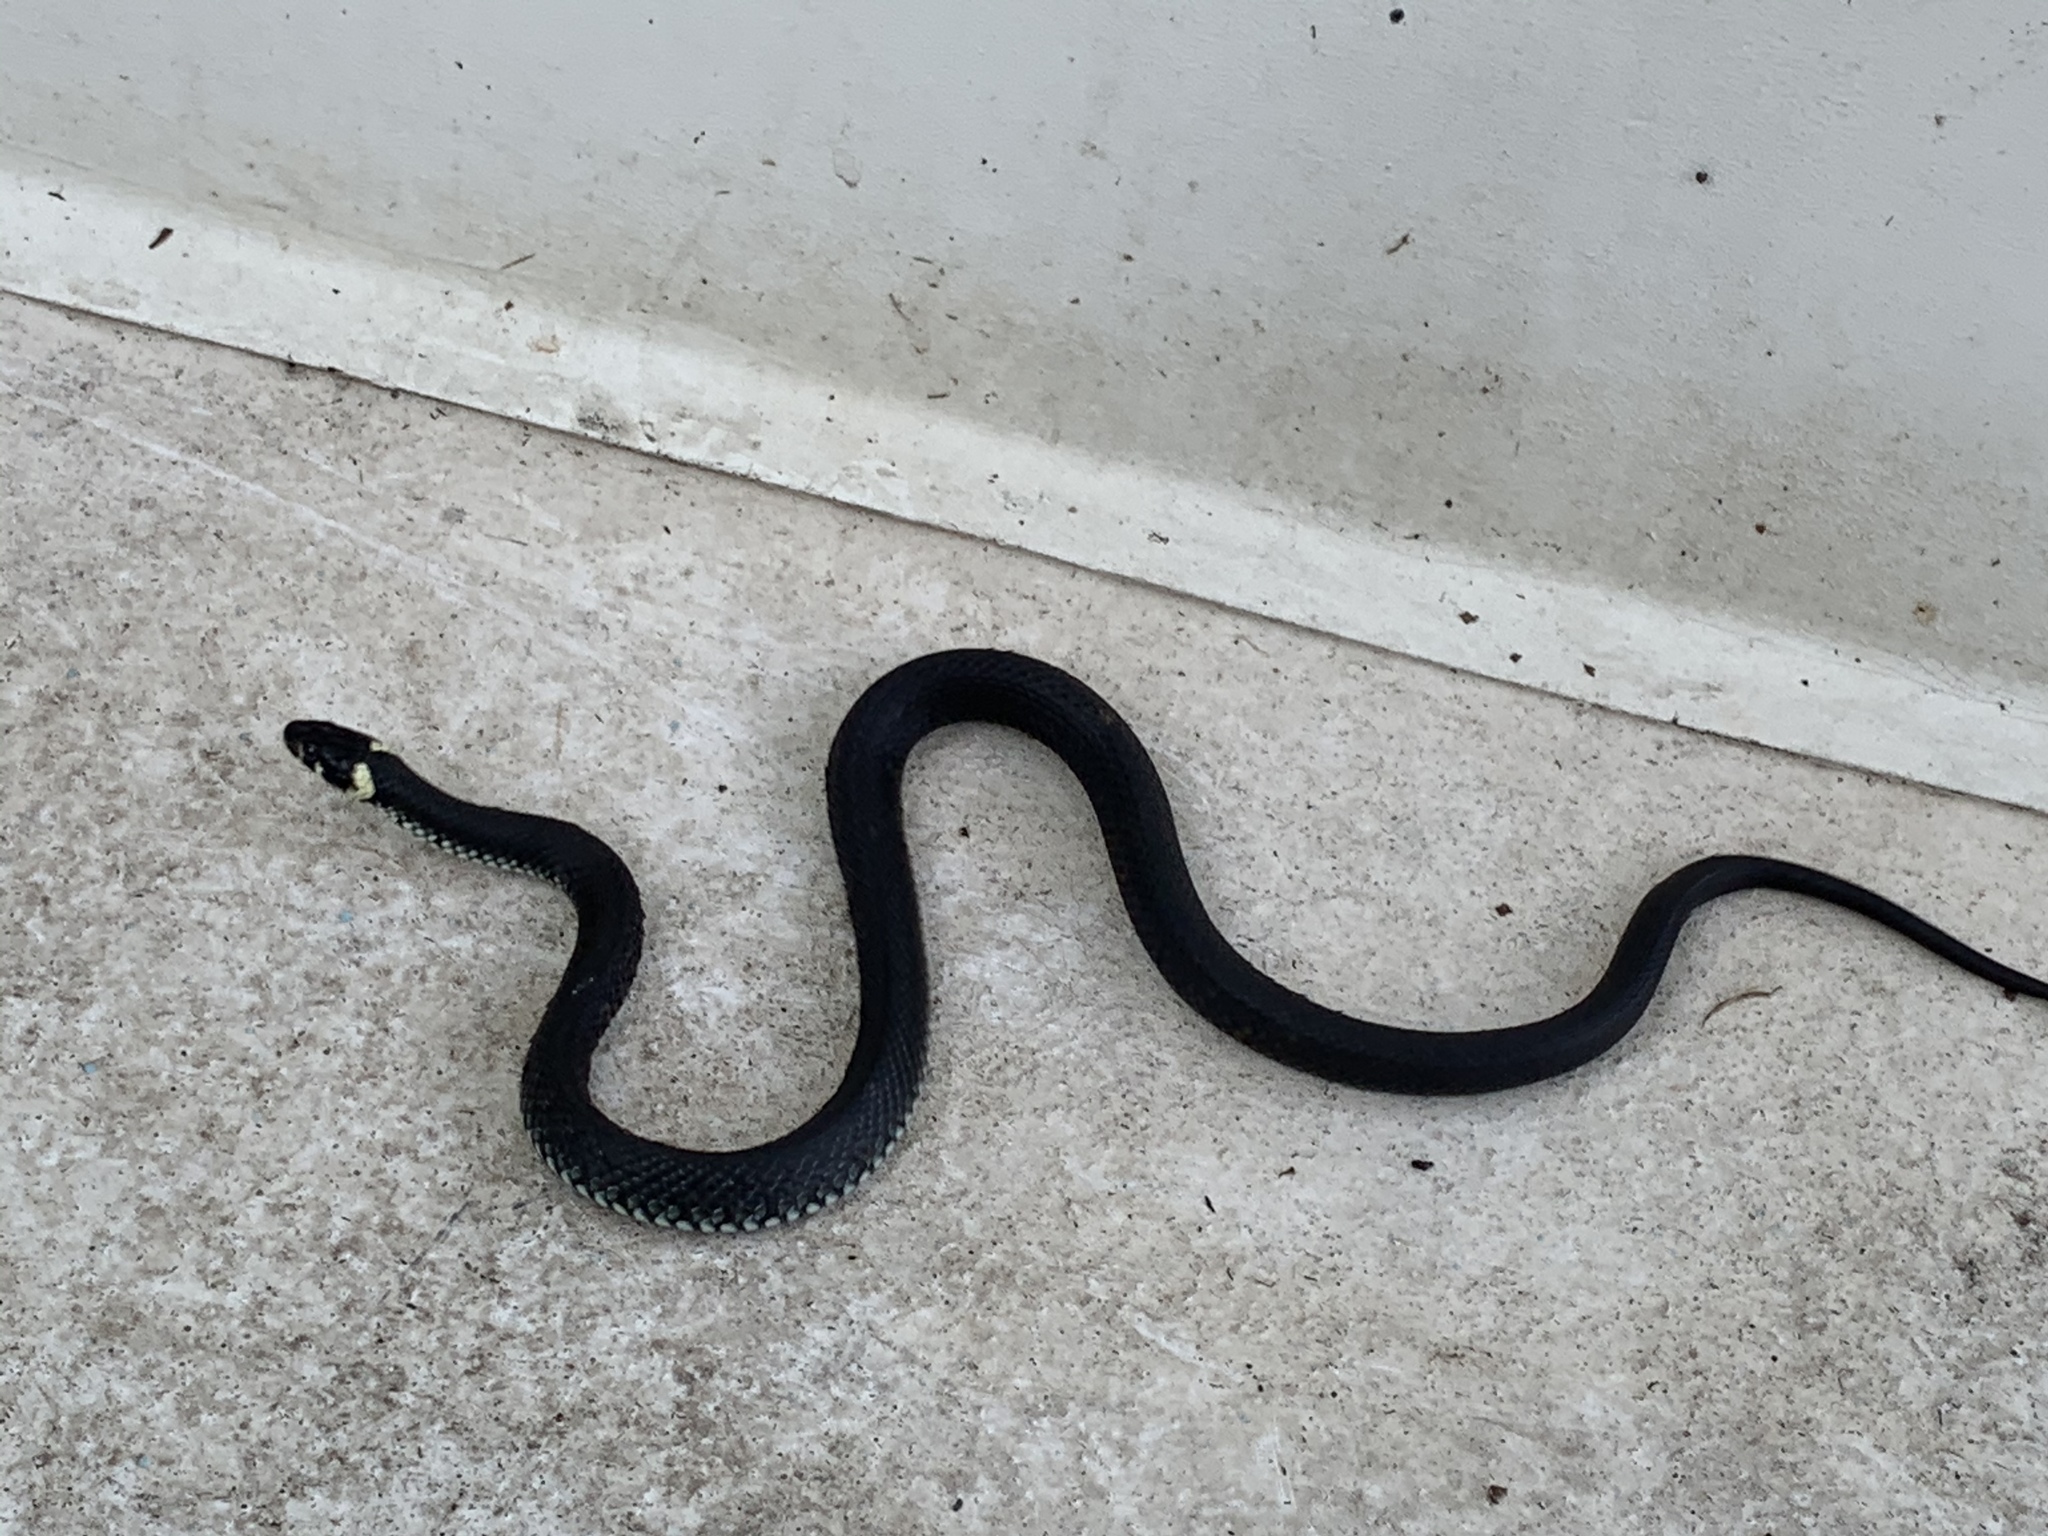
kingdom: Animalia
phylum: Chordata
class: Squamata
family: Colubridae
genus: Natrix
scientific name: Natrix natrix
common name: Grass snake
